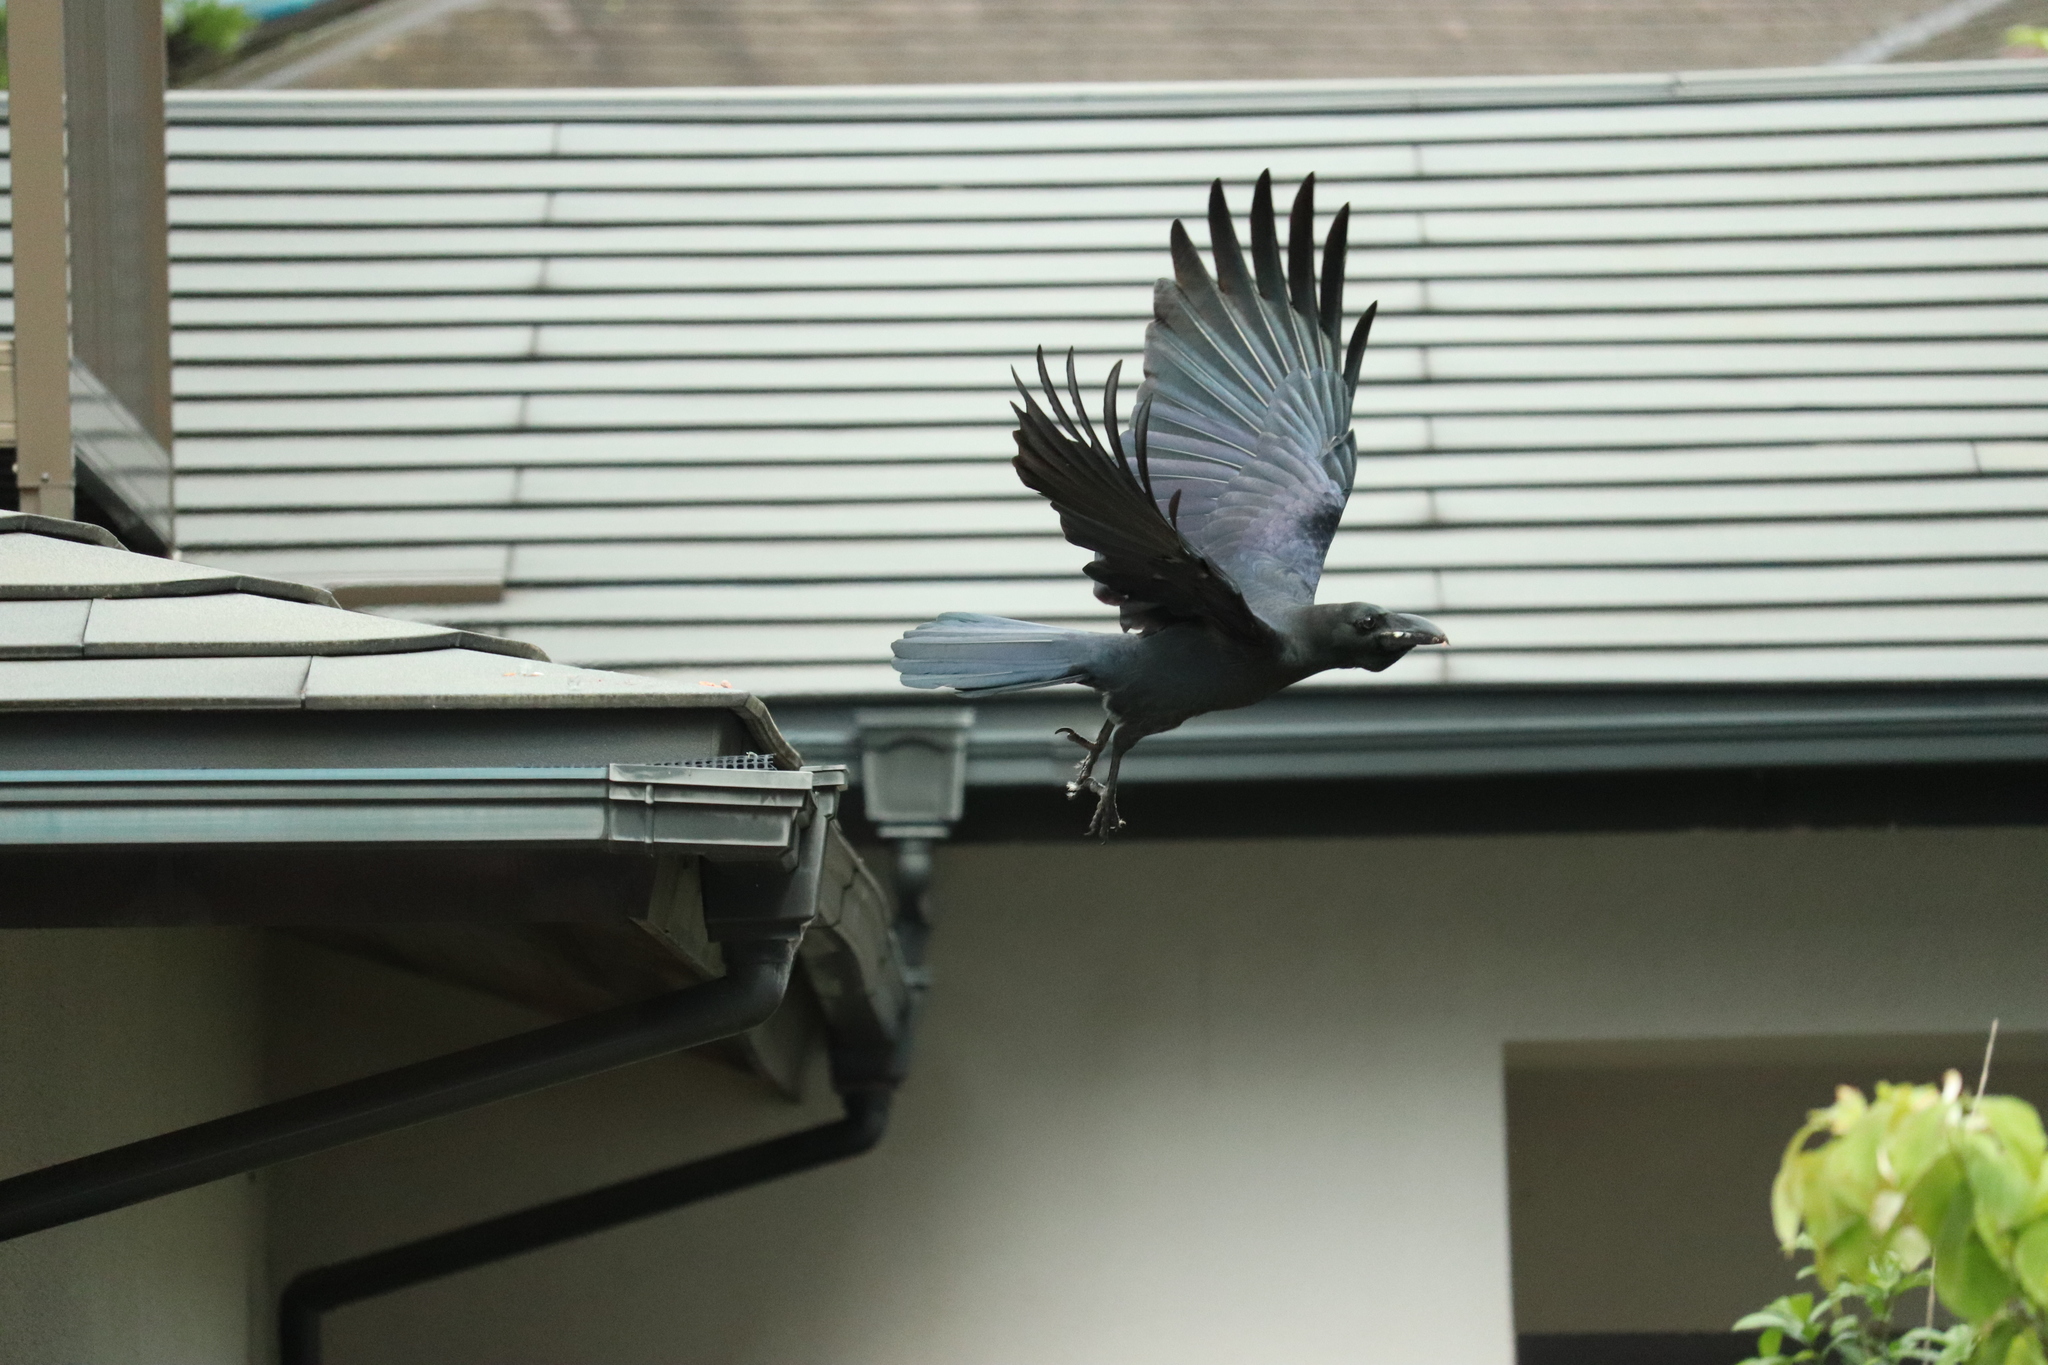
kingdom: Animalia
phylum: Chordata
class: Aves
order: Passeriformes
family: Corvidae
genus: Corvus
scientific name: Corvus macrorhynchos
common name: Large-billed crow
